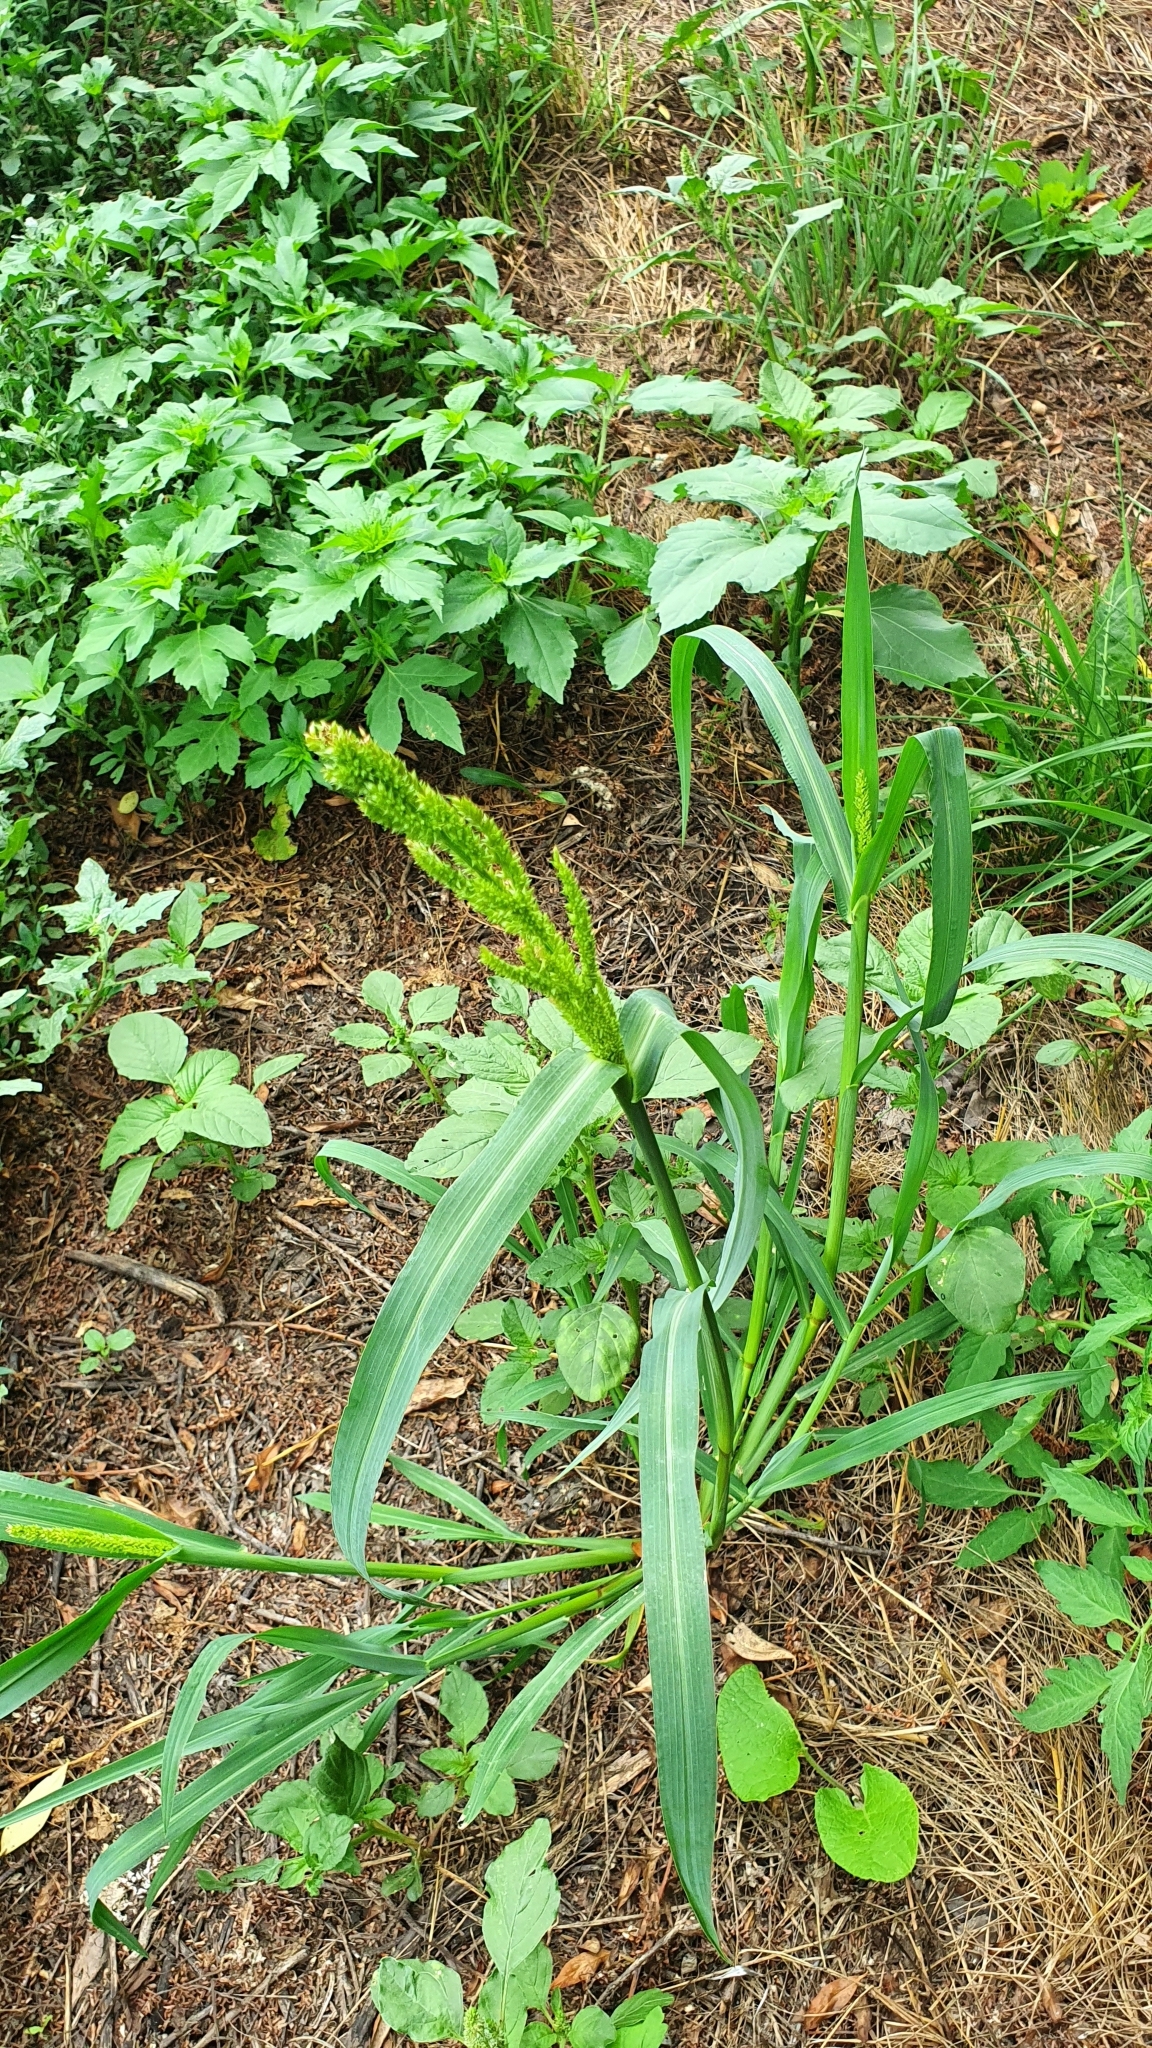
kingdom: Plantae
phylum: Tracheophyta
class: Liliopsida
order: Poales
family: Poaceae
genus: Echinochloa
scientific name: Echinochloa crus-galli
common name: Cockspur
